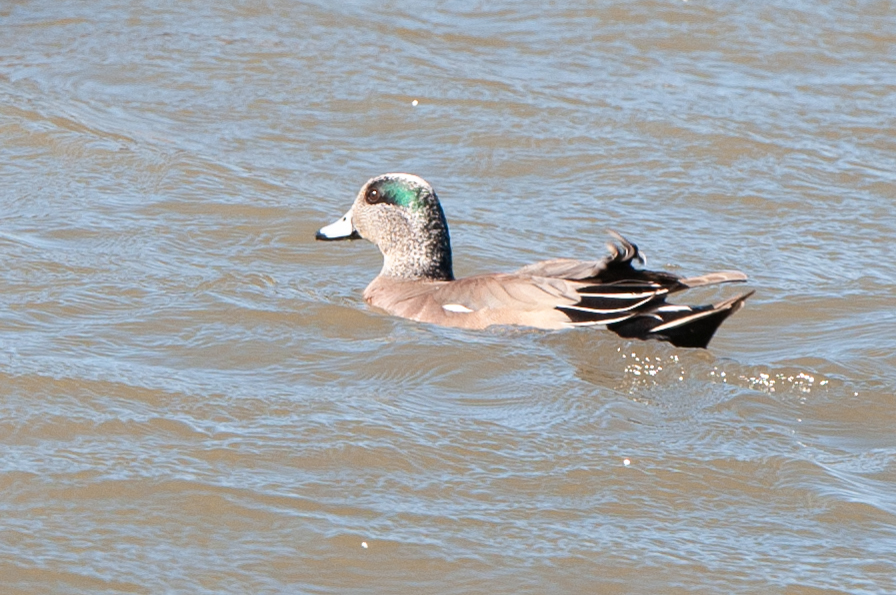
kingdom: Animalia
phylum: Chordata
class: Aves
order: Anseriformes
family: Anatidae
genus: Mareca
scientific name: Mareca americana
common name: American wigeon
